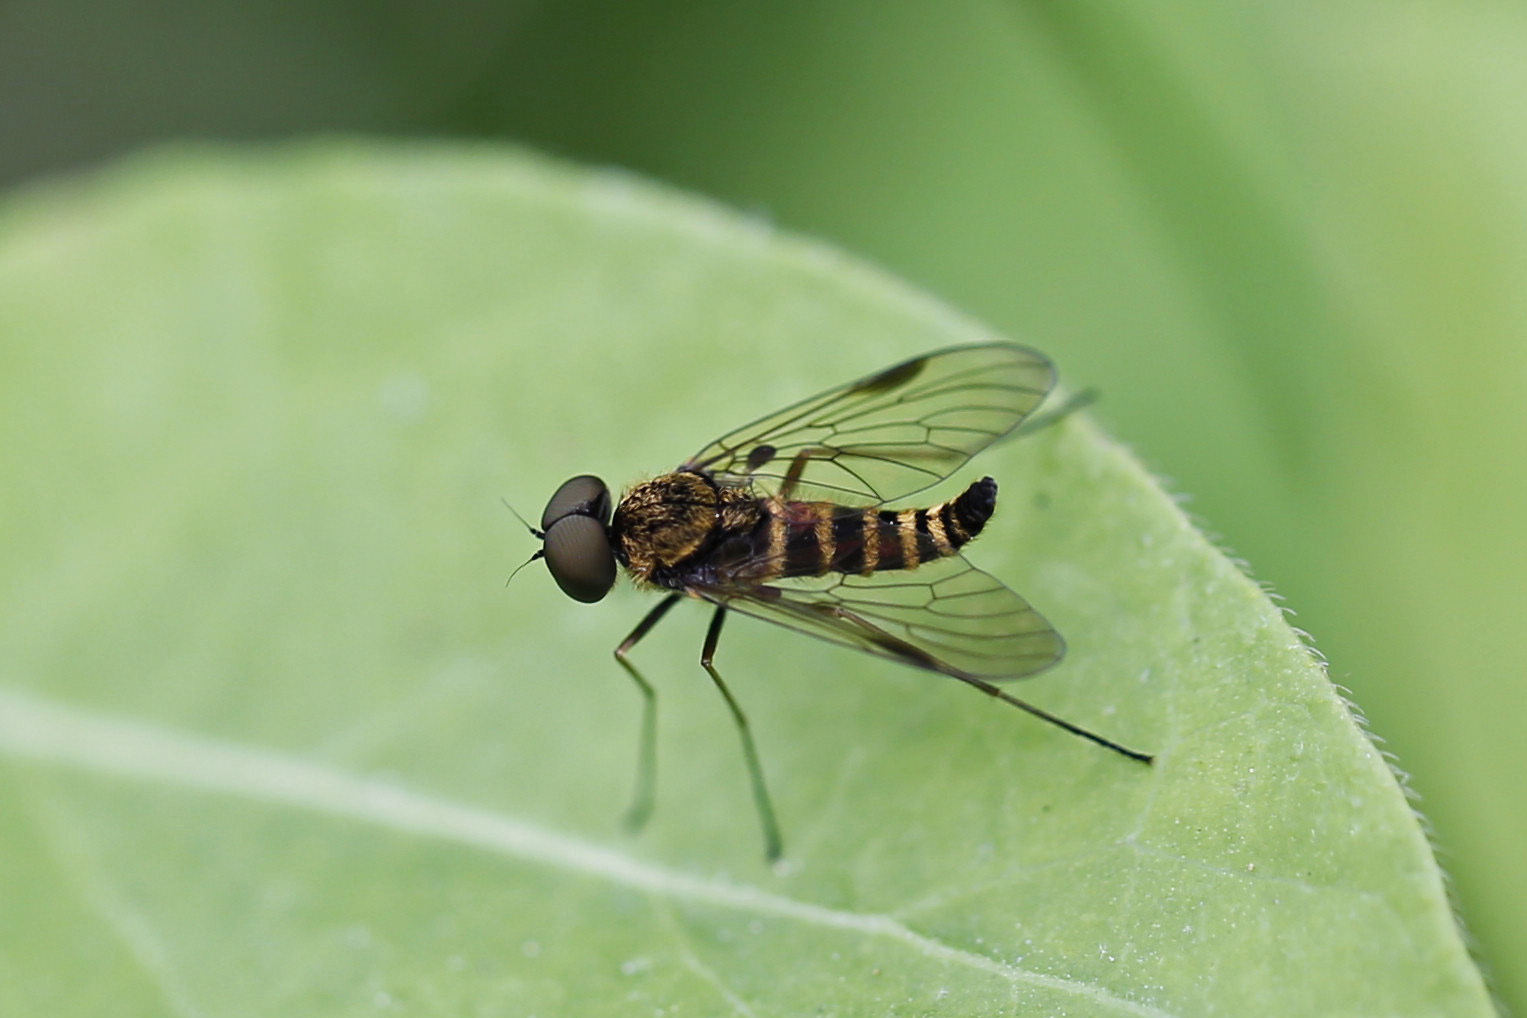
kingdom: Animalia
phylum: Arthropoda
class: Insecta
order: Diptera
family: Rhagionidae
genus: Chrysopilus
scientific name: Chrysopilus fasciatus
